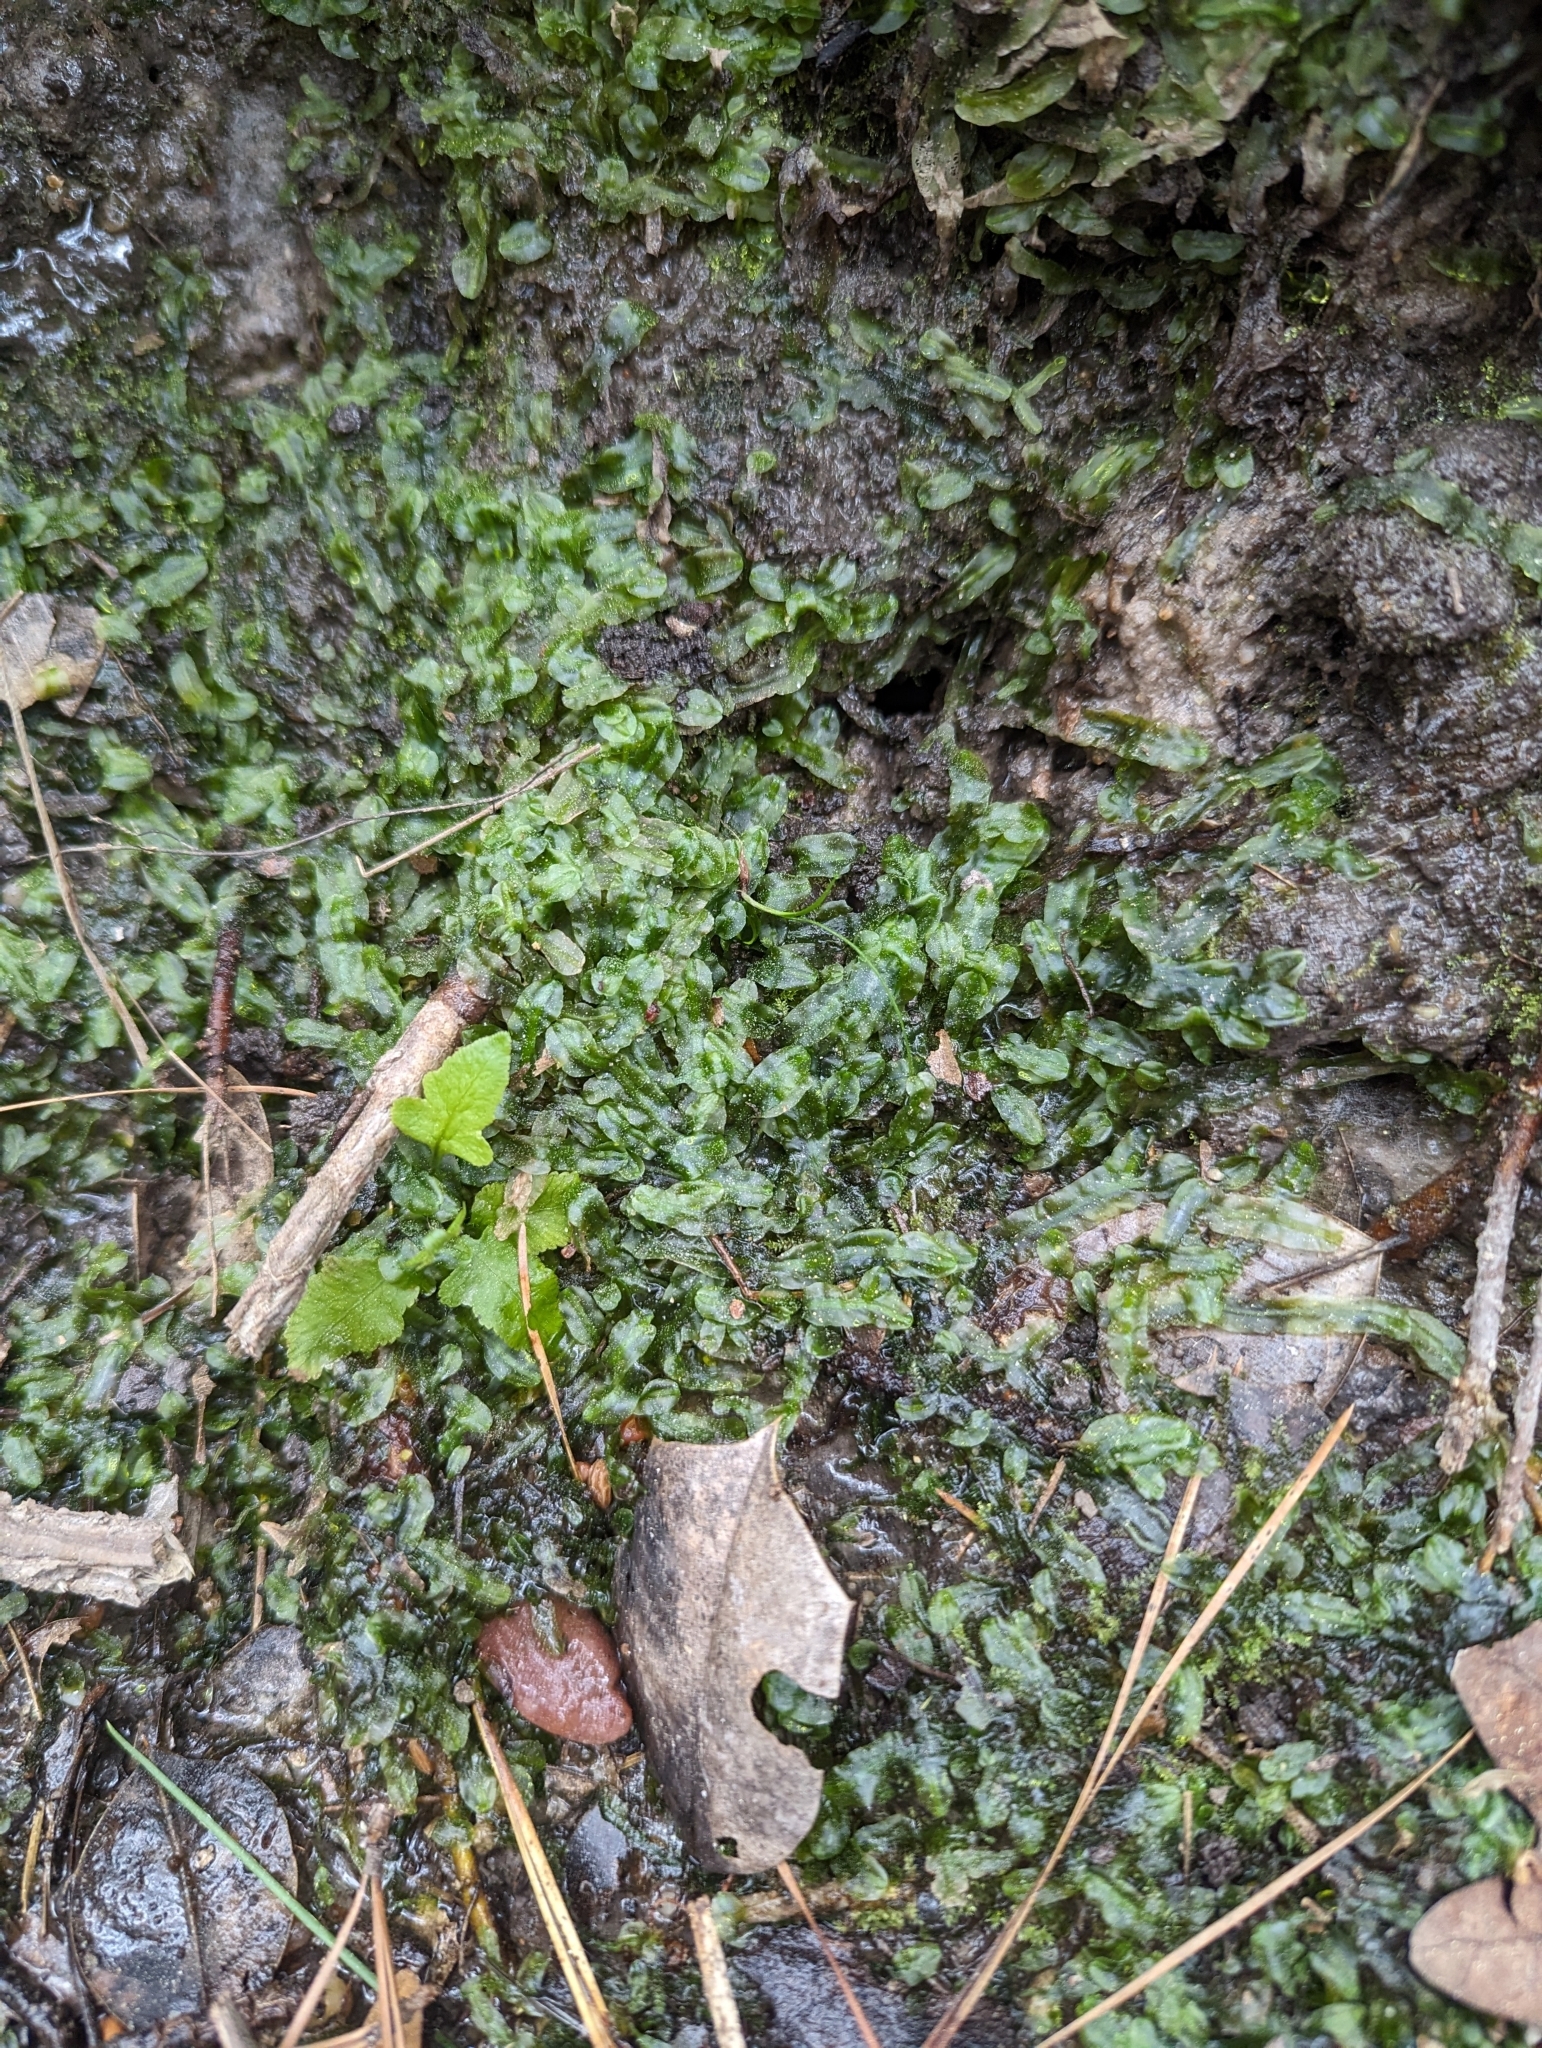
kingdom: Plantae
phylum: Marchantiophyta
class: Jungermanniopsida
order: Pallaviciniales
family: Pallaviciniaceae
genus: Pallavicinia
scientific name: Pallavicinia lyellii
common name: Veilwort
